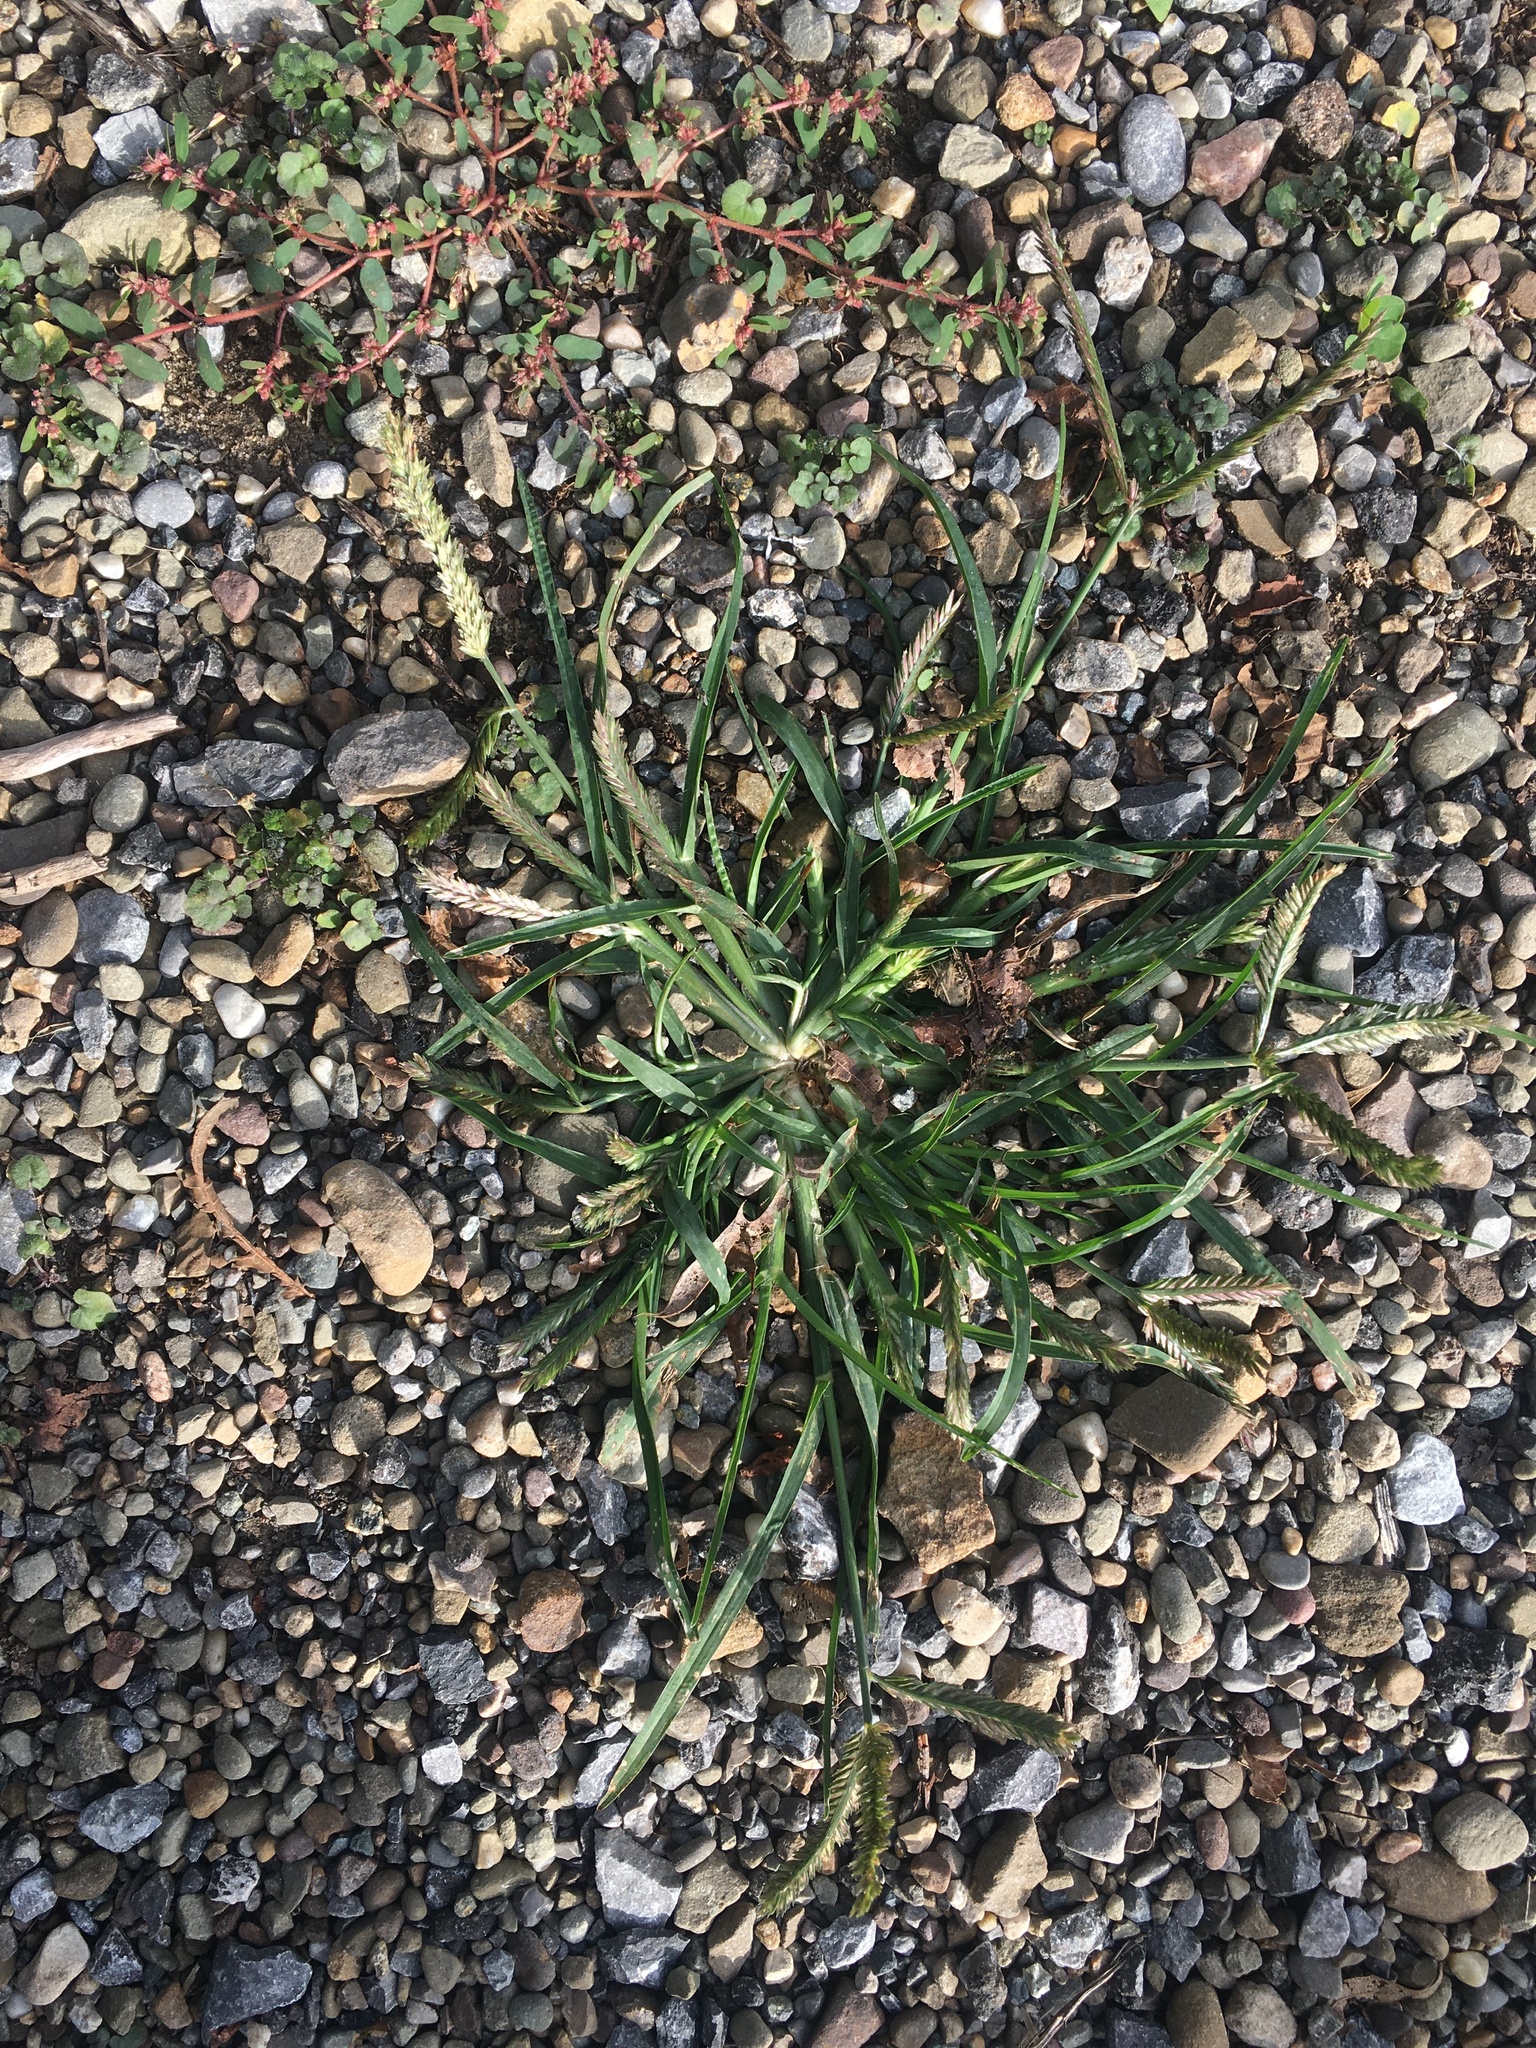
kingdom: Plantae
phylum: Tracheophyta
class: Liliopsida
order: Poales
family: Poaceae
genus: Eleusine
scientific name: Eleusine indica
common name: Yard-grass
